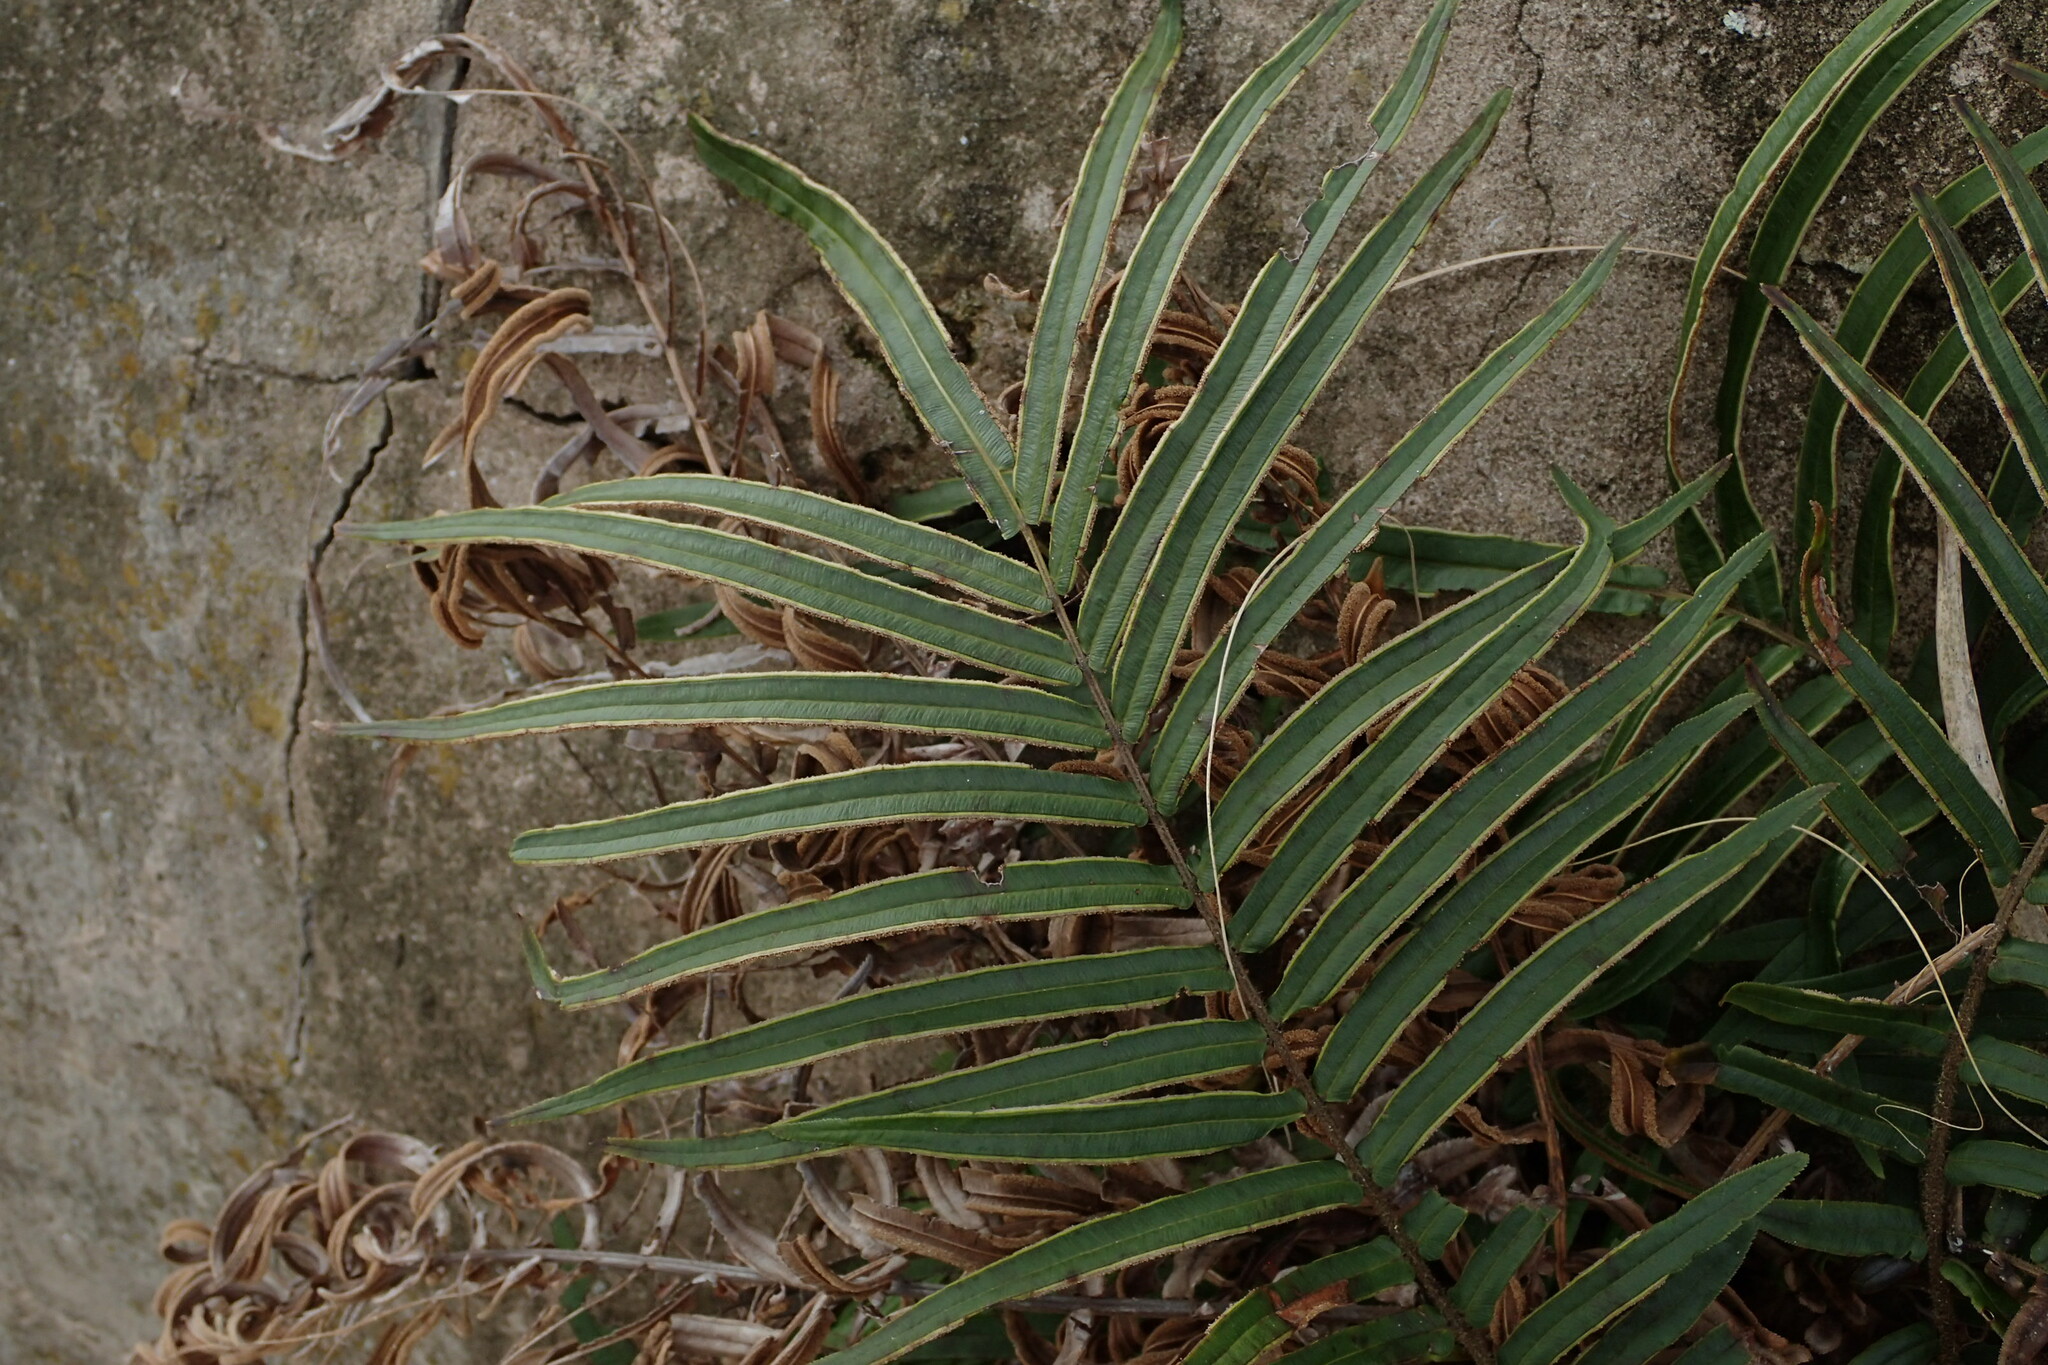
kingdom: Plantae
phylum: Tracheophyta
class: Polypodiopsida
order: Polypodiales
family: Pteridaceae
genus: Pteris
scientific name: Pteris vittata
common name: Ladder brake
